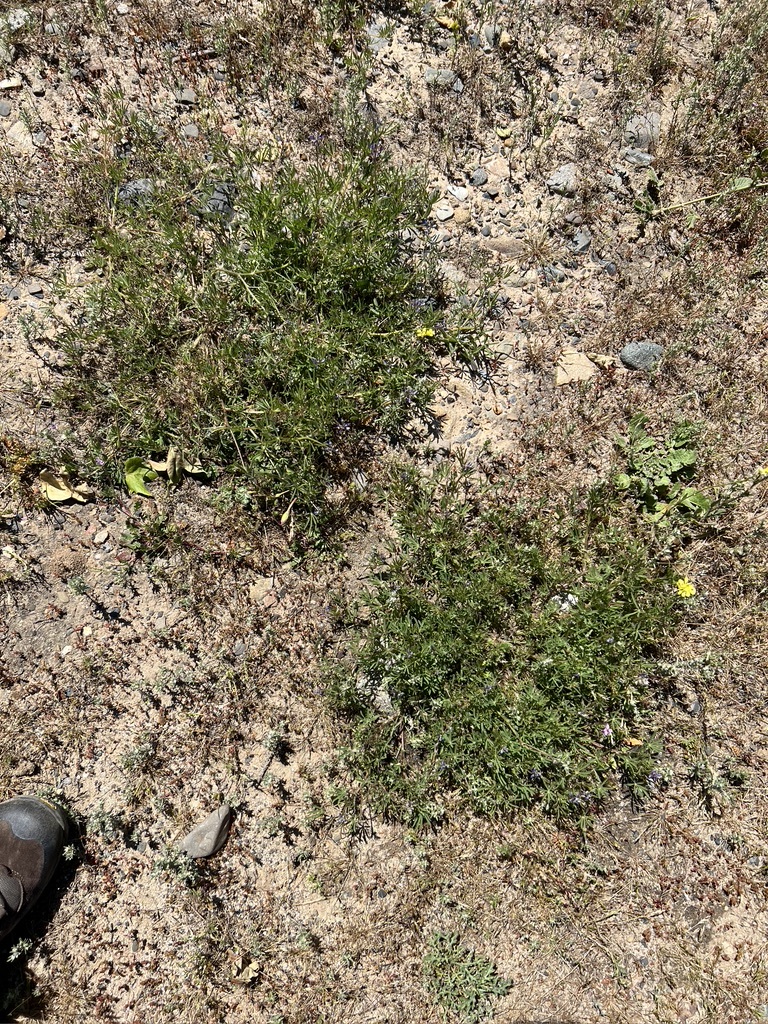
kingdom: Plantae
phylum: Tracheophyta
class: Magnoliopsida
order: Fabales
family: Fabaceae
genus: Lupinus
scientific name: Lupinus bicolor
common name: Miniature lupine
